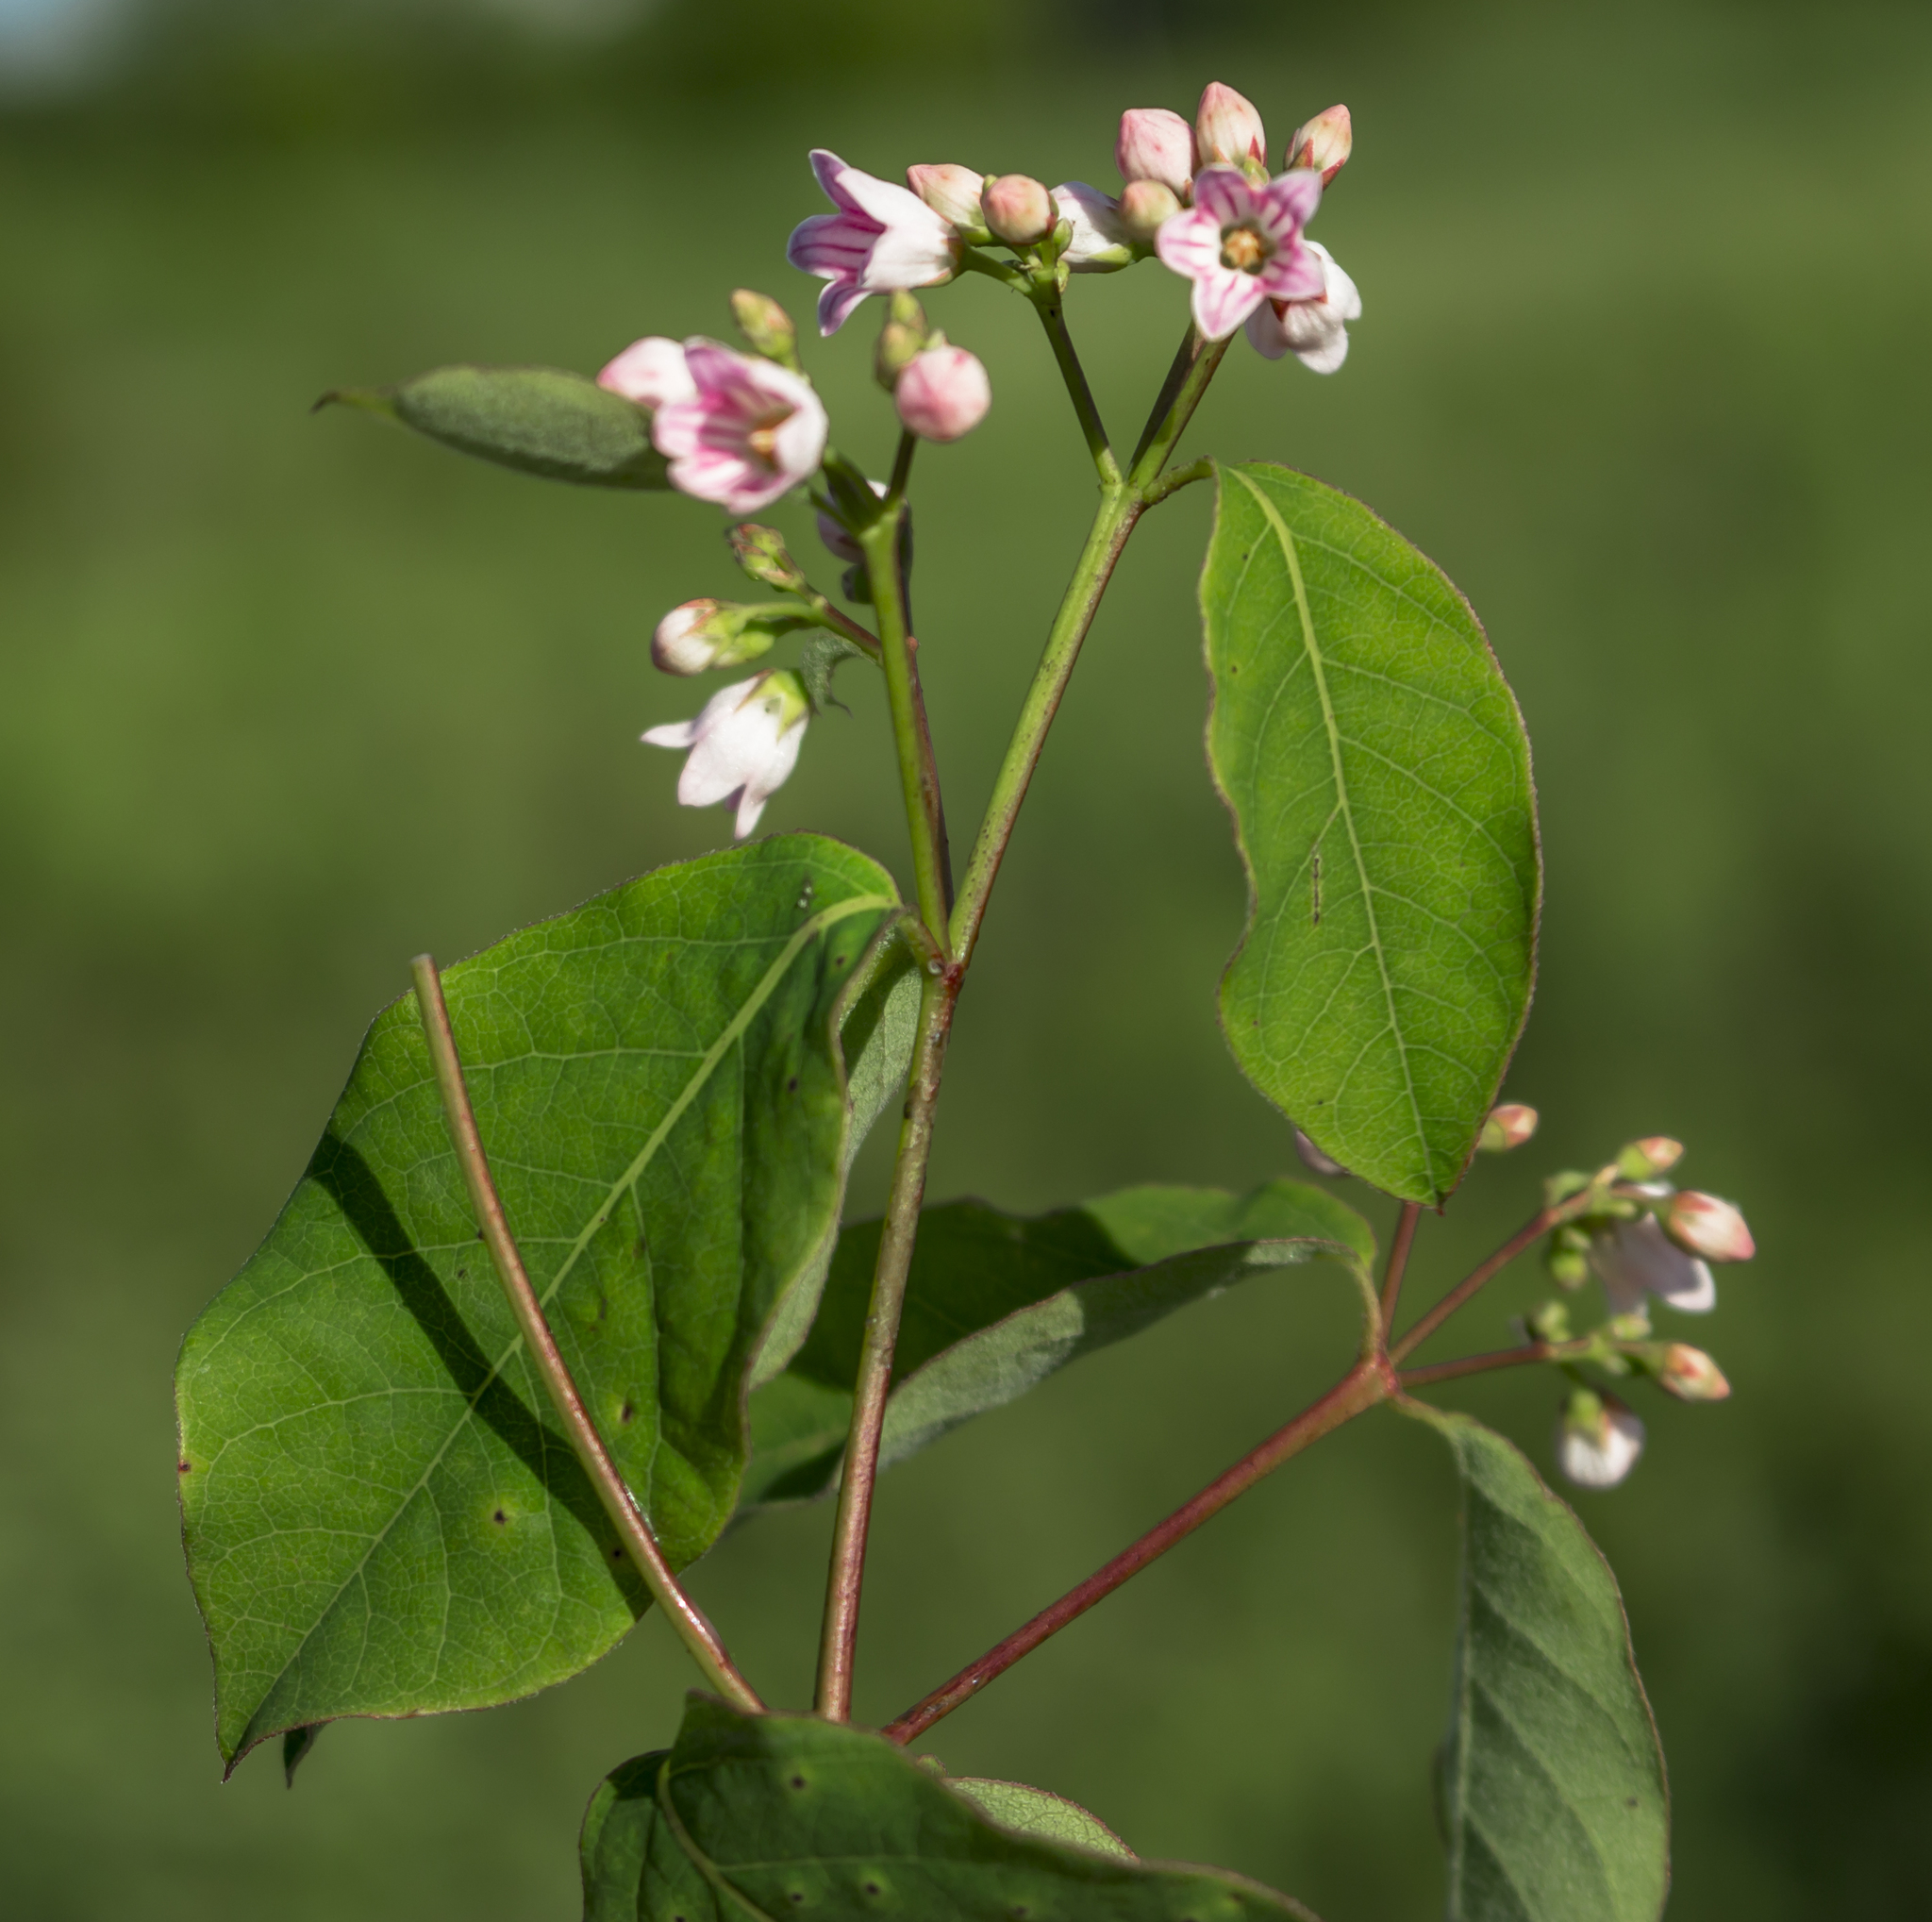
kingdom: Plantae
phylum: Tracheophyta
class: Magnoliopsida
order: Gentianales
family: Apocynaceae
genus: Apocynum
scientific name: Apocynum androsaemifolium
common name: Spreading dogbane
